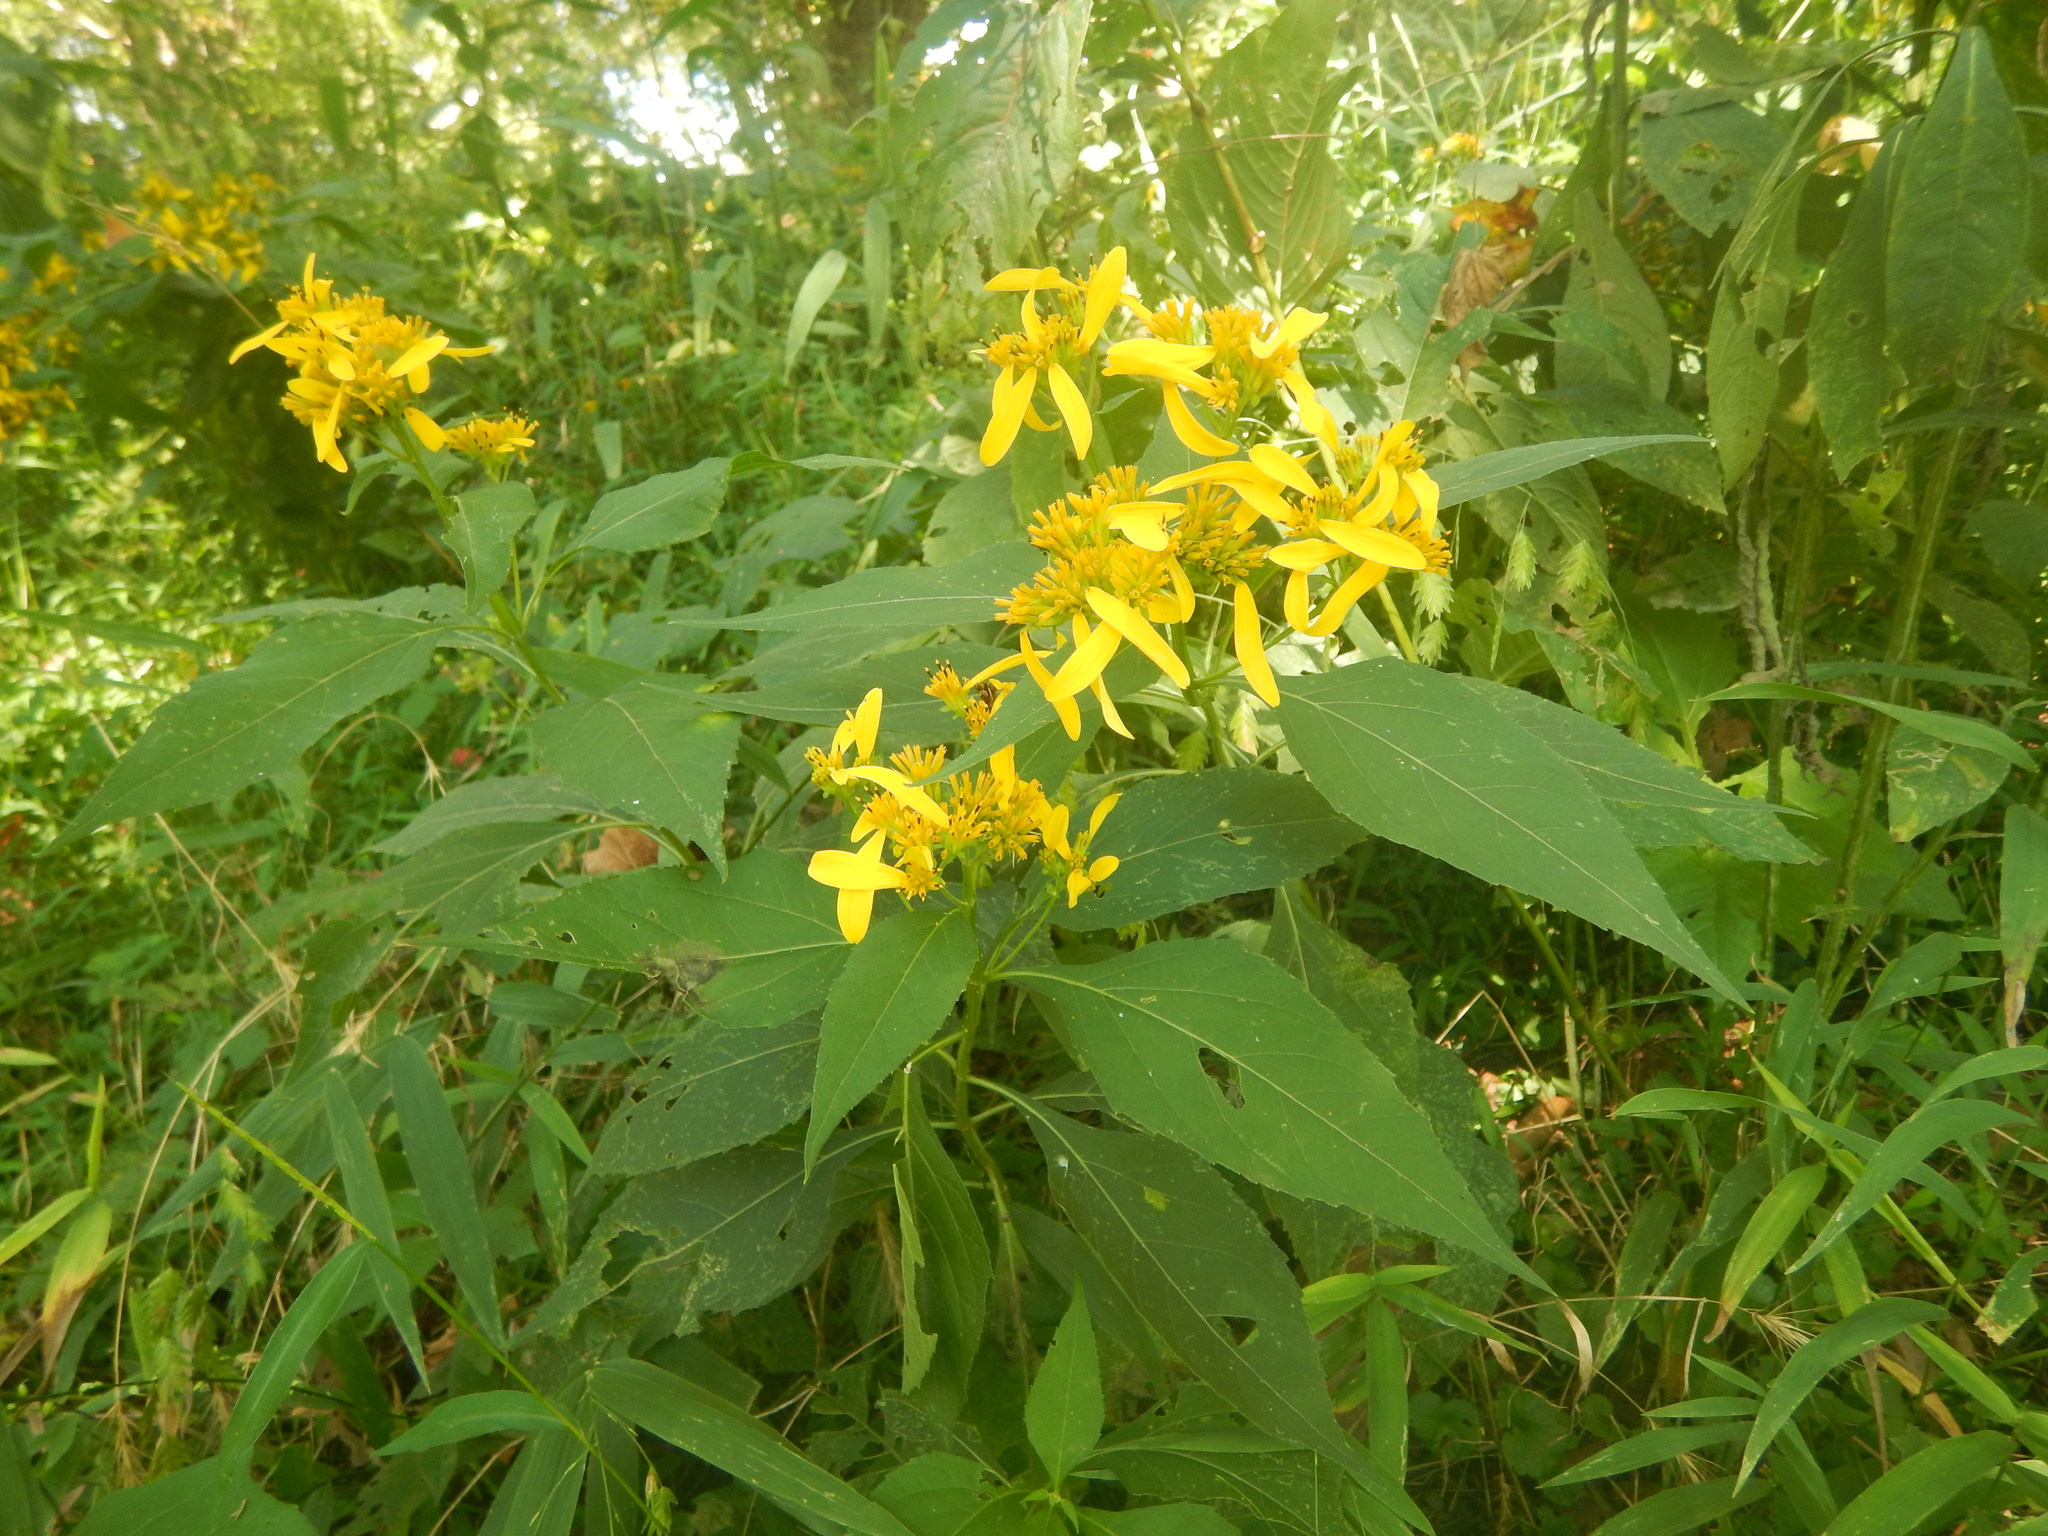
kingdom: Plantae
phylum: Tracheophyta
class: Magnoliopsida
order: Asterales
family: Asteraceae
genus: Verbesina
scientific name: Verbesina occidentalis
